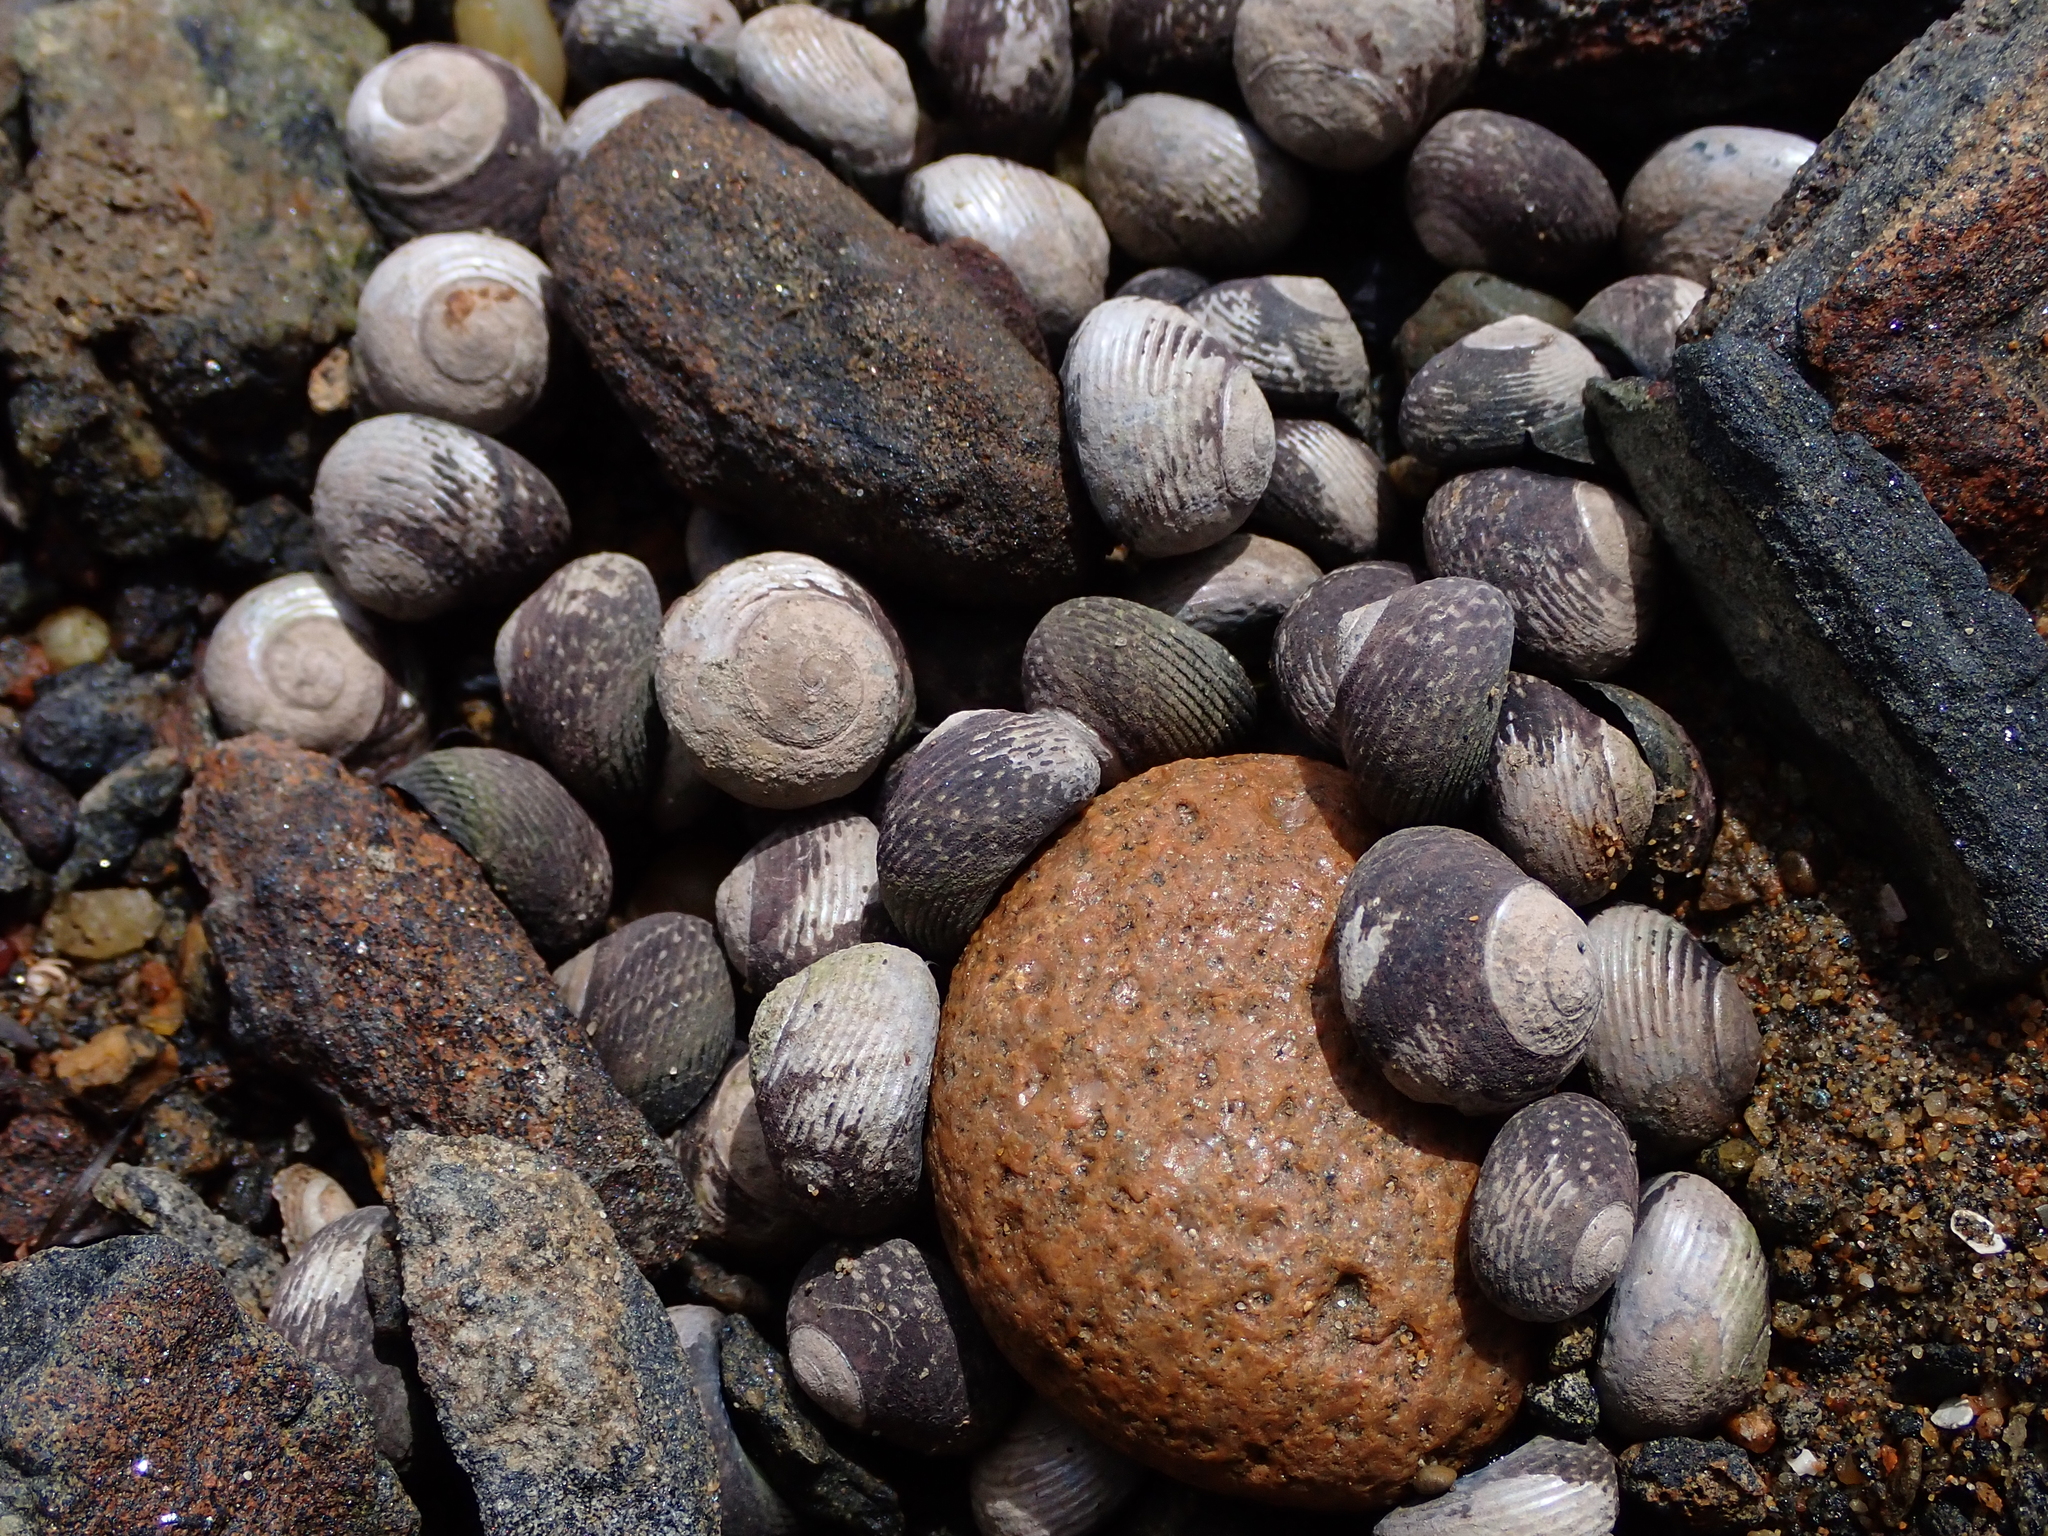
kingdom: Animalia
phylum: Mollusca
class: Gastropoda
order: Trochida
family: Trochidae
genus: Diloma
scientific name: Diloma aridum
